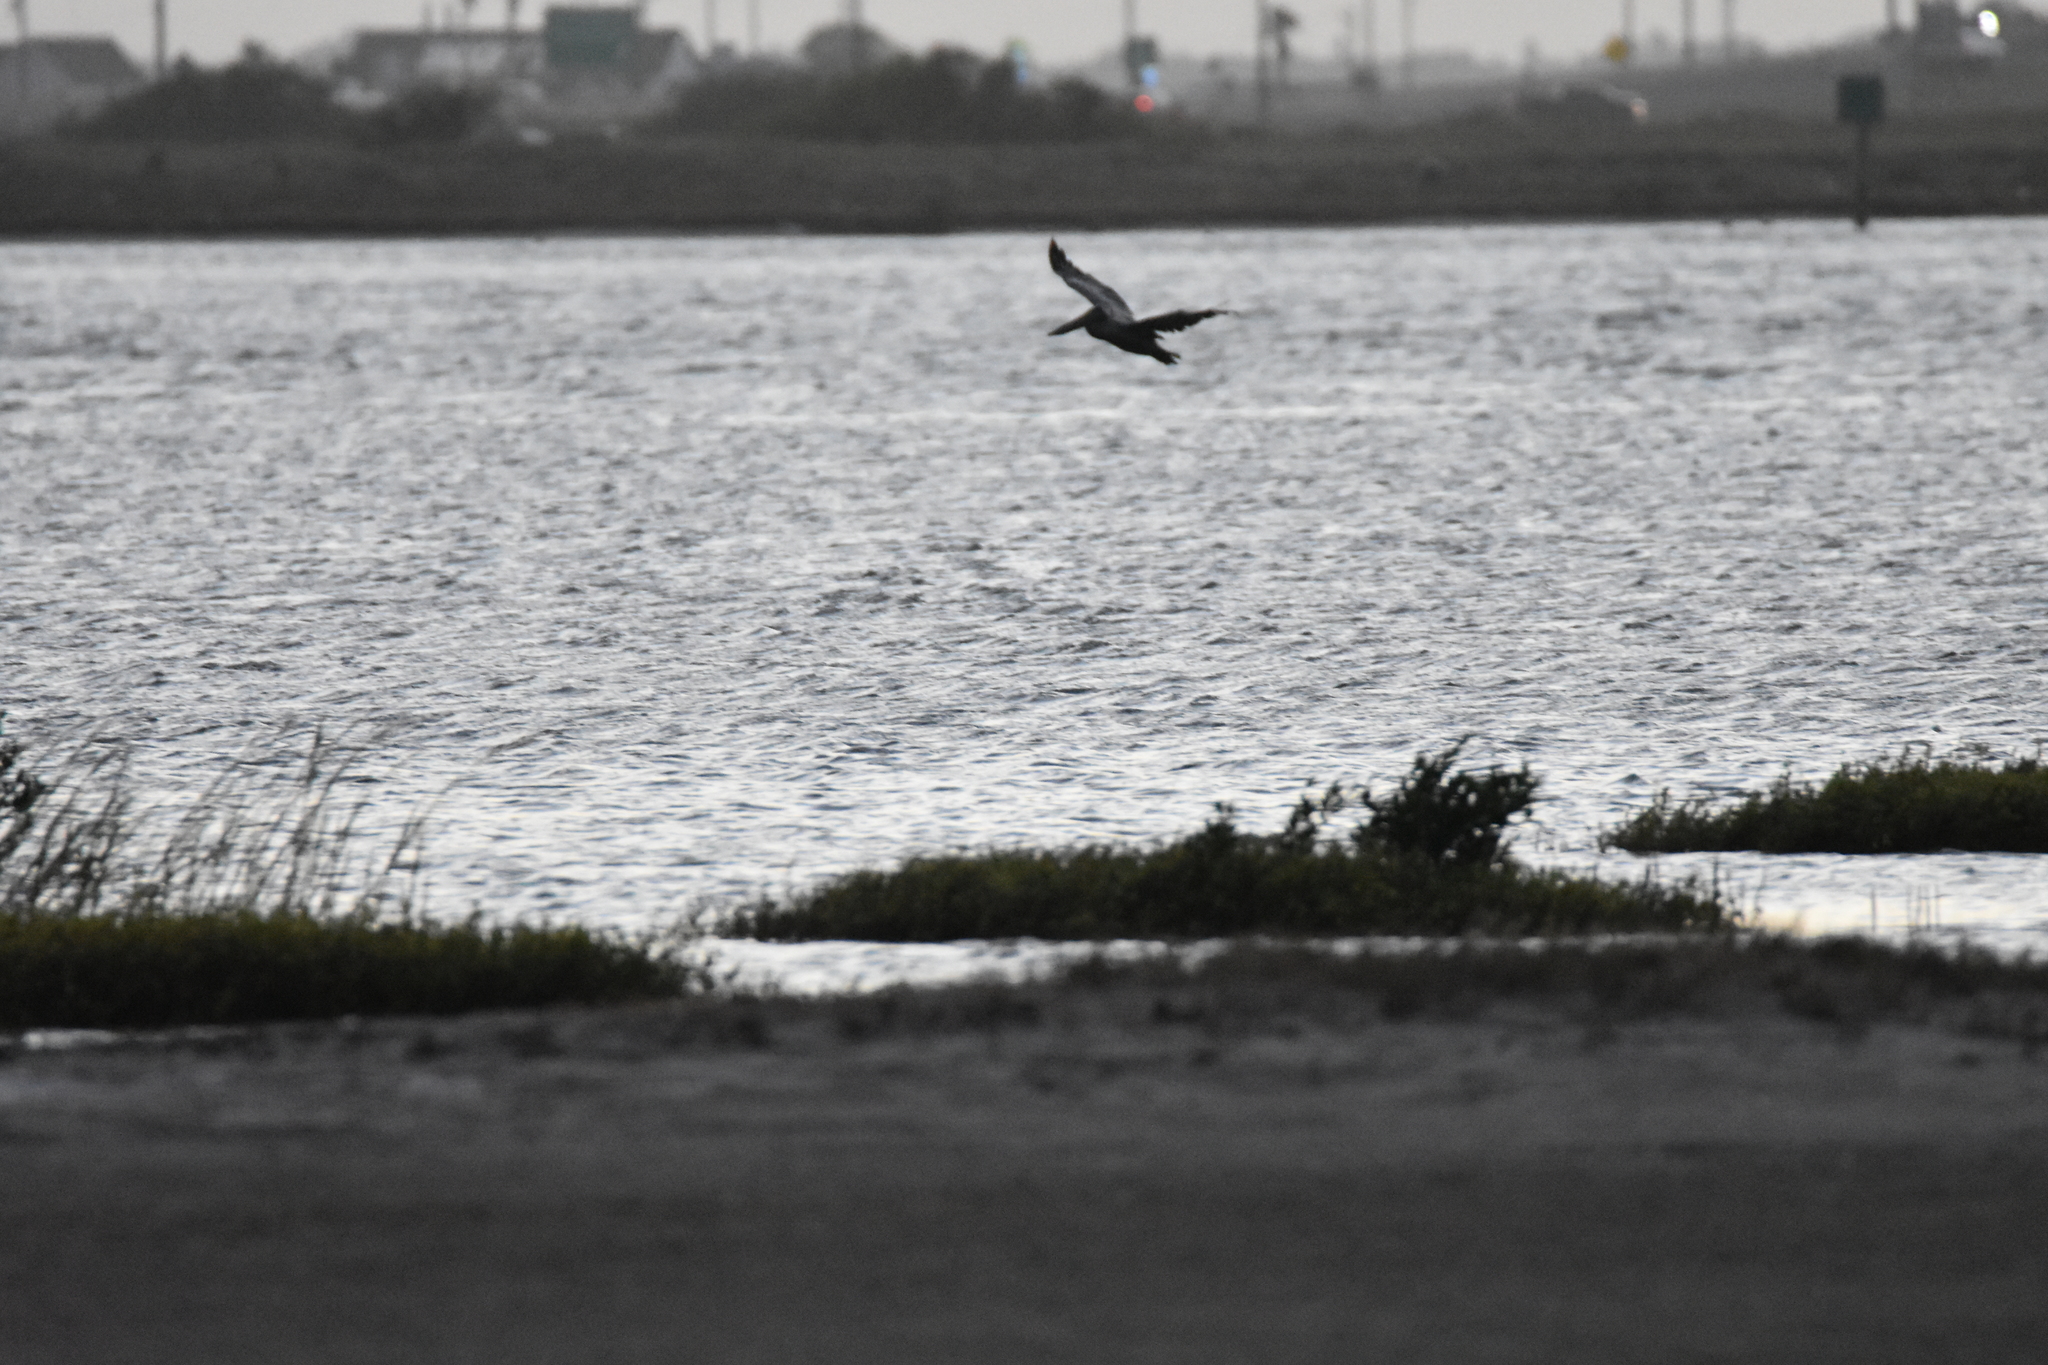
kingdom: Animalia
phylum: Chordata
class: Aves
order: Pelecaniformes
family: Pelecanidae
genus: Pelecanus
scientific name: Pelecanus occidentalis
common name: Brown pelican
